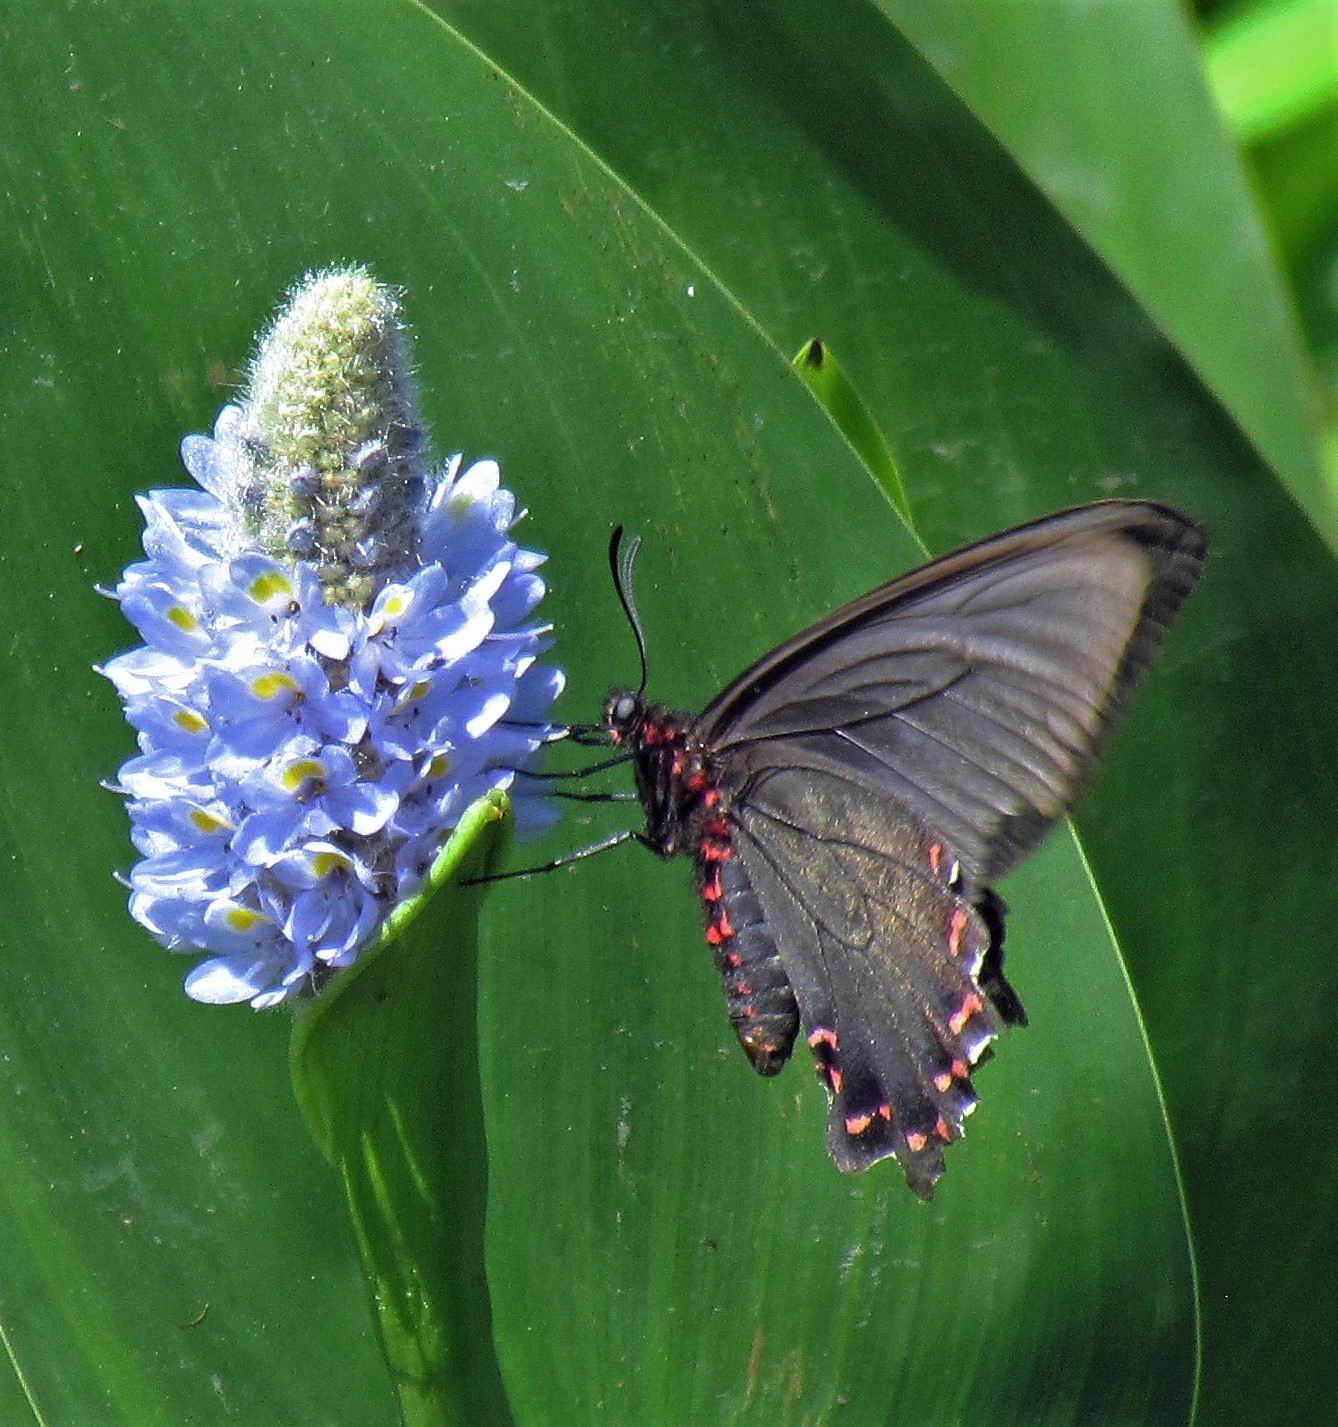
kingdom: Animalia
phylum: Arthropoda
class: Insecta
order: Lepidoptera
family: Papilionidae
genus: Parides
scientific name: Parides bunichus
